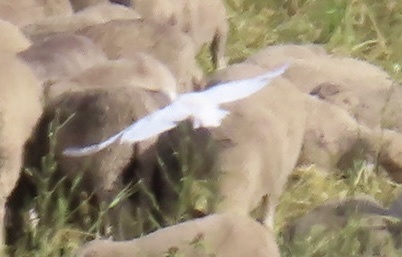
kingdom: Animalia
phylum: Chordata
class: Aves
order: Pelecaniformes
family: Ardeidae
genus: Bubulcus
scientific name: Bubulcus ibis
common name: Cattle egret
